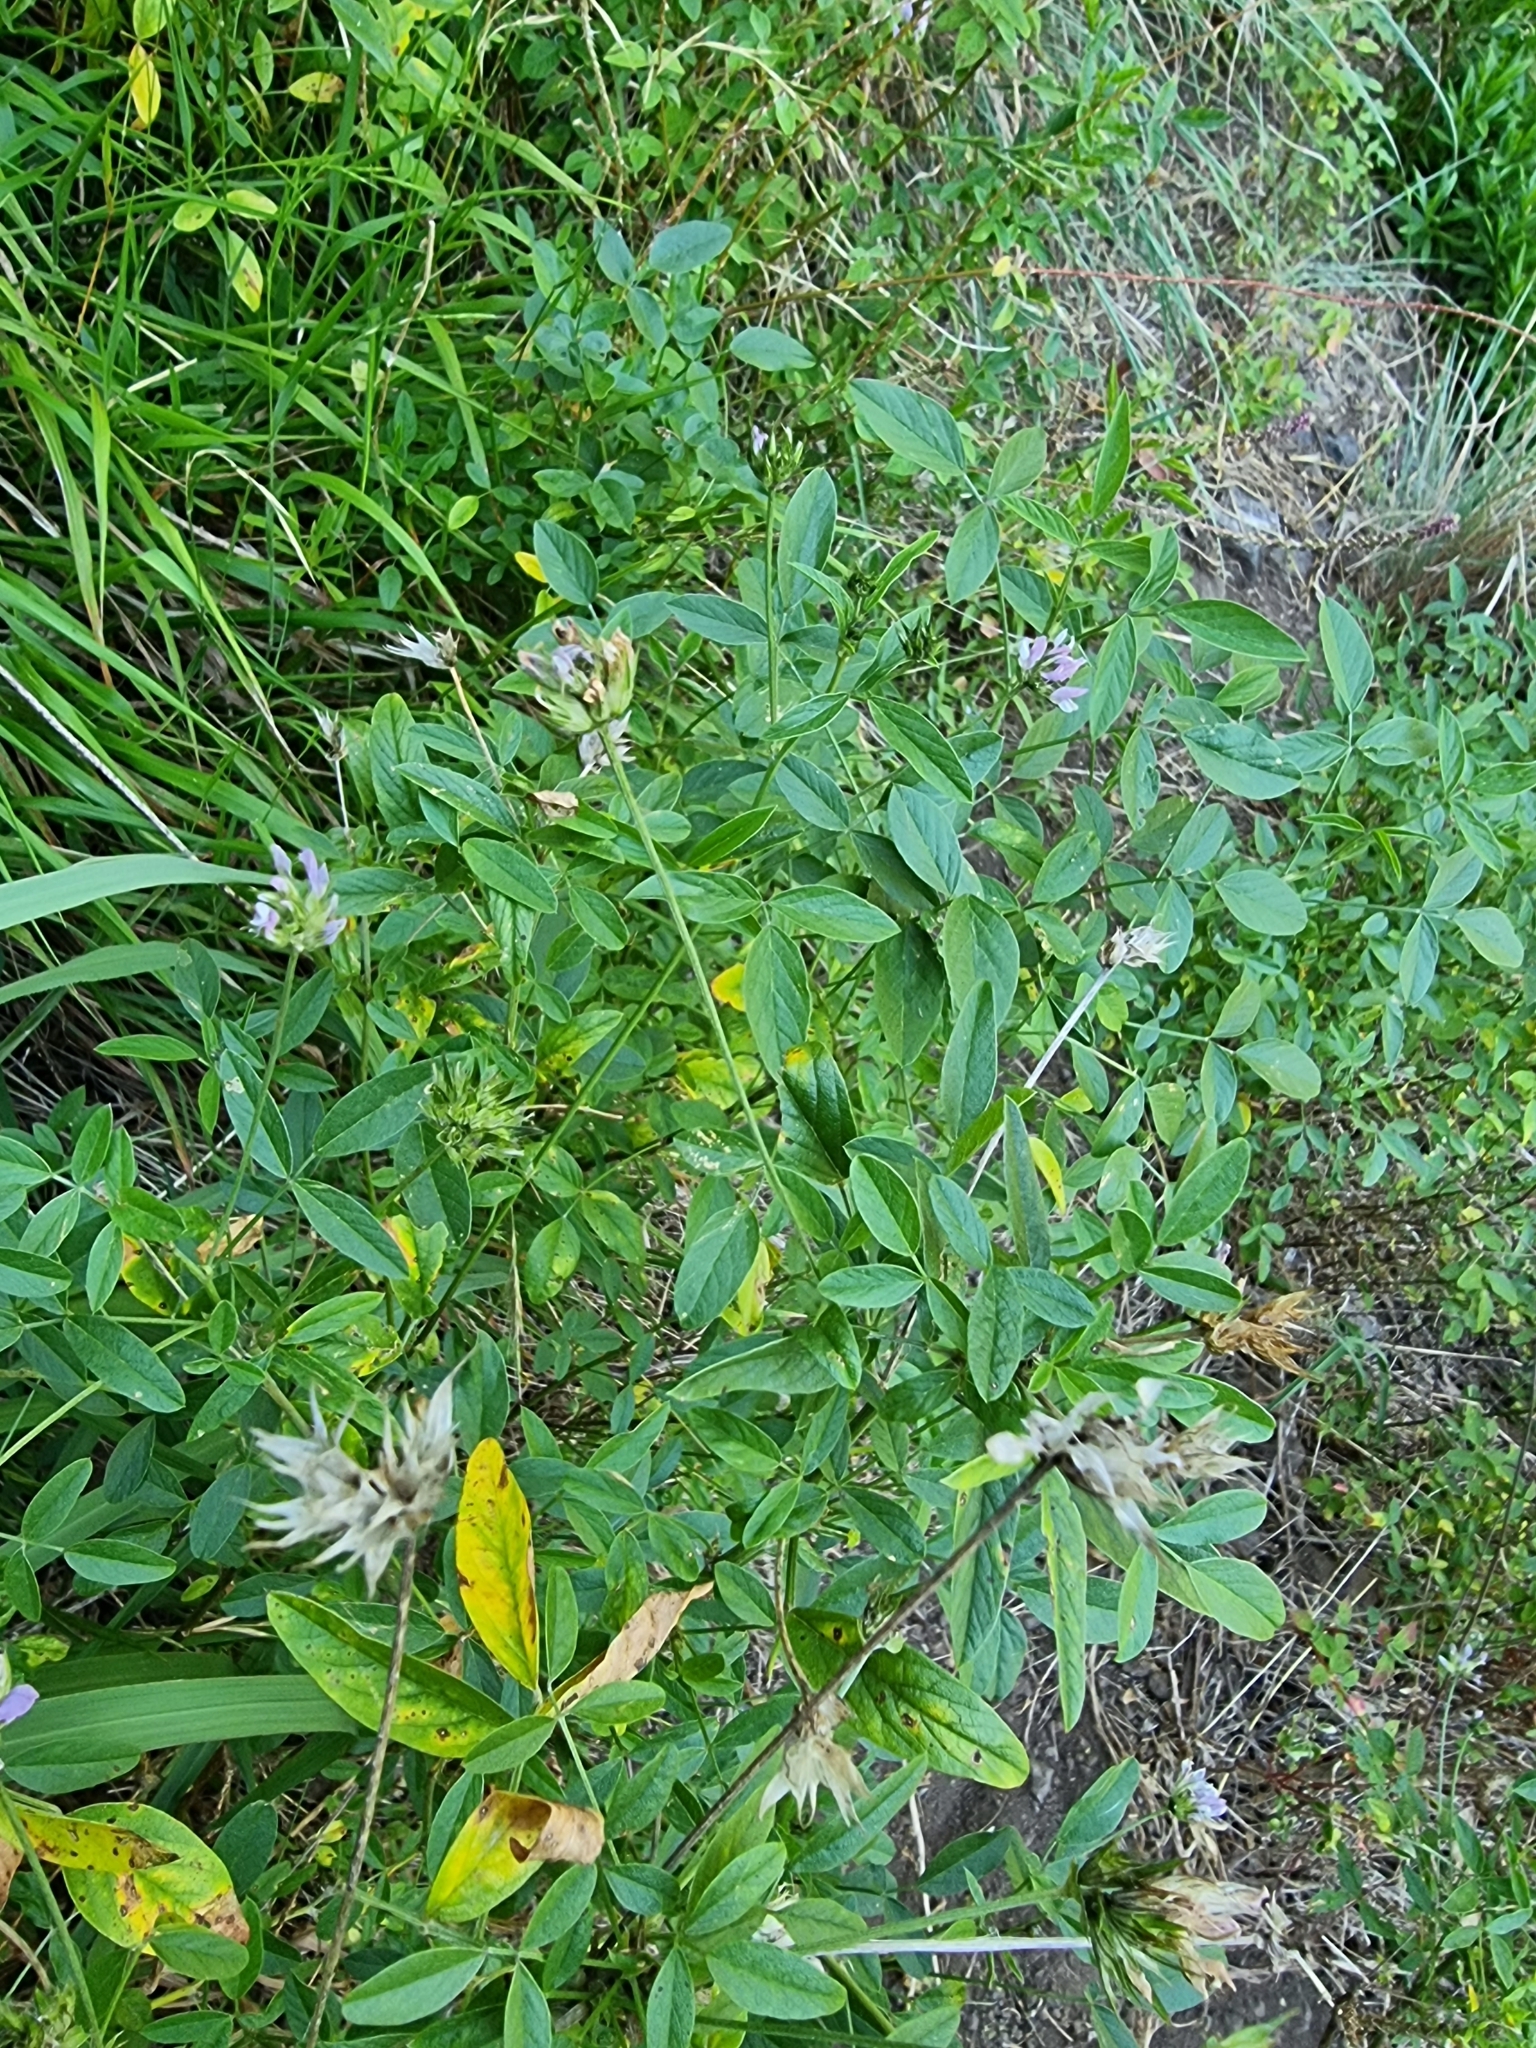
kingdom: Plantae
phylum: Tracheophyta
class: Magnoliopsida
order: Fabales
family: Fabaceae
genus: Bituminaria
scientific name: Bituminaria bituminosa
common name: Arabian pea
